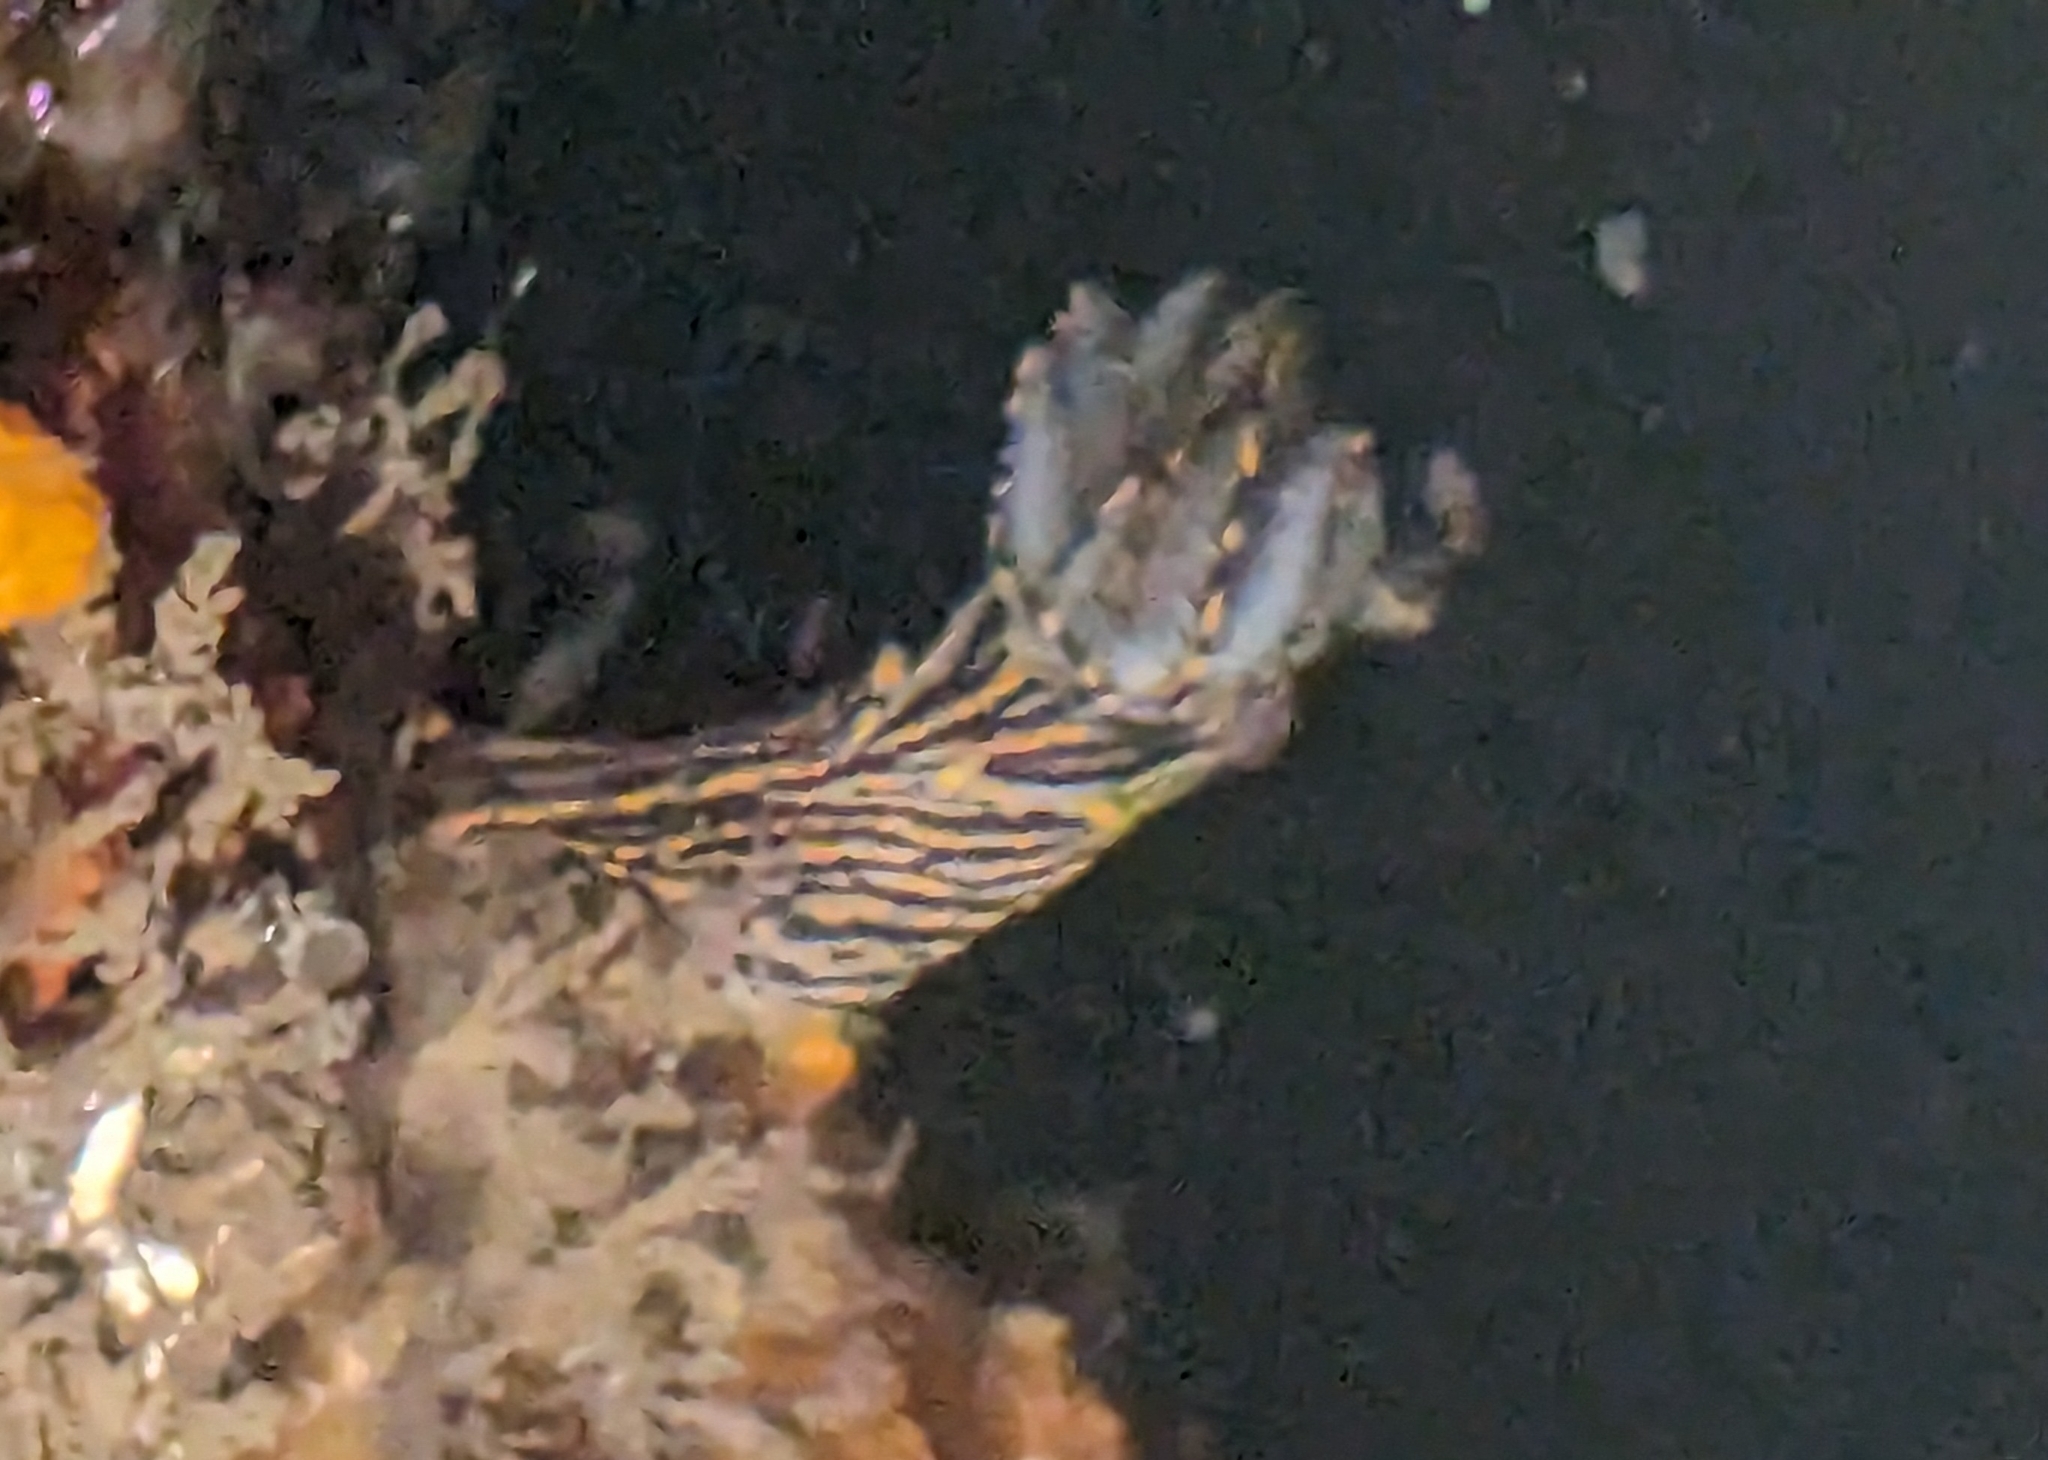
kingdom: Animalia
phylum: Mollusca
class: Gastropoda
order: Nudibranchia
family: Polyceridae
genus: Polycera
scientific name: Polycera atra
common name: Orange-spike polycera
